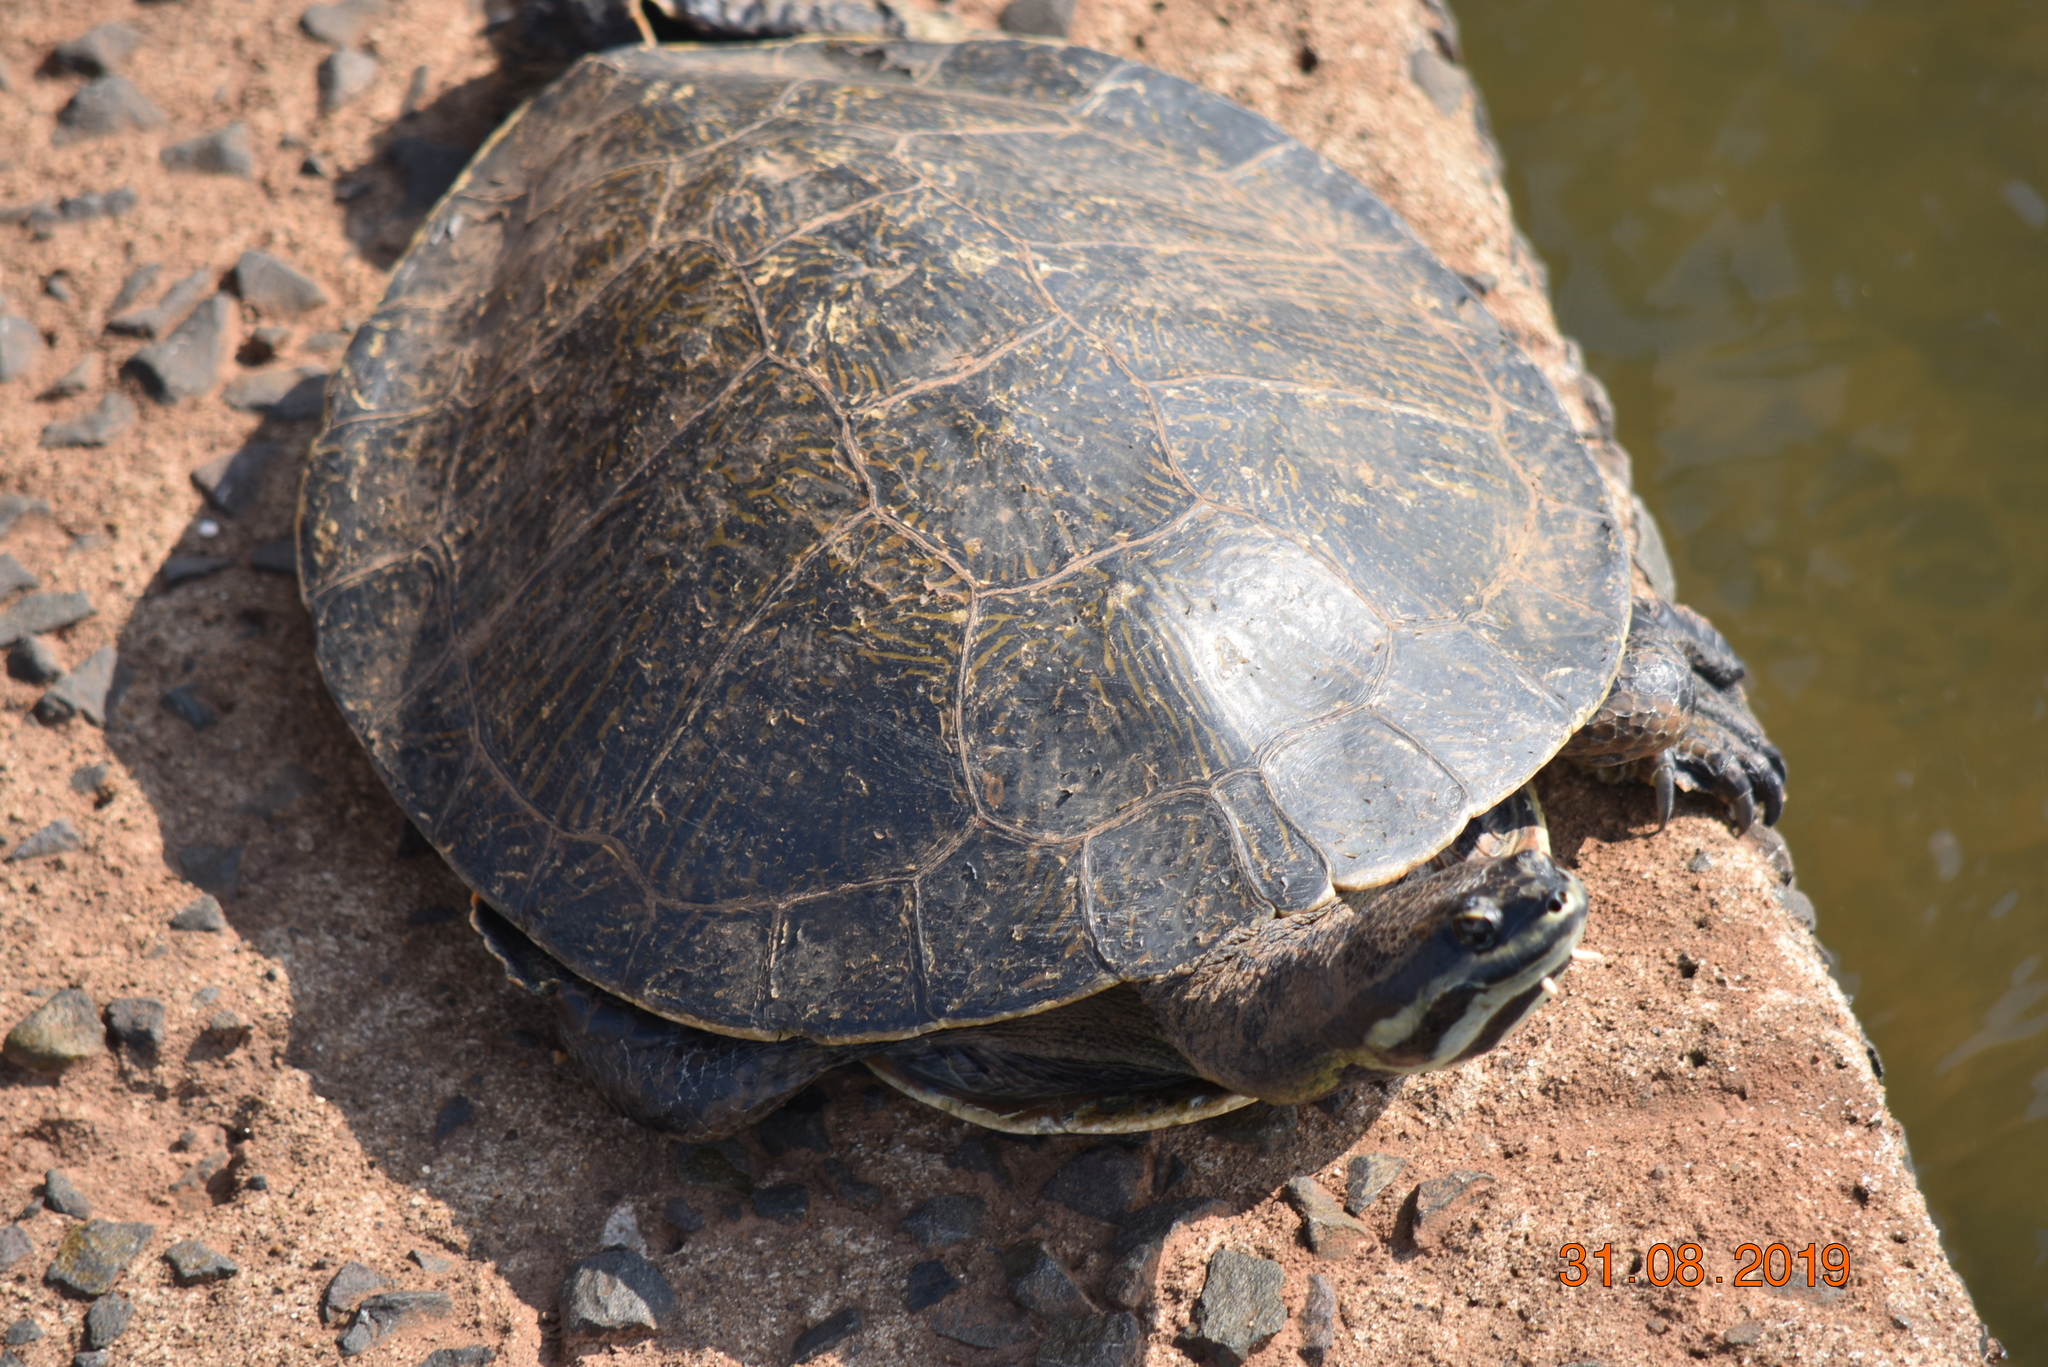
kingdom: Animalia
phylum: Chordata
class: Testudines
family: Chelidae
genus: Phrynops
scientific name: Phrynops williamsi
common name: Williams side-necked turtle
